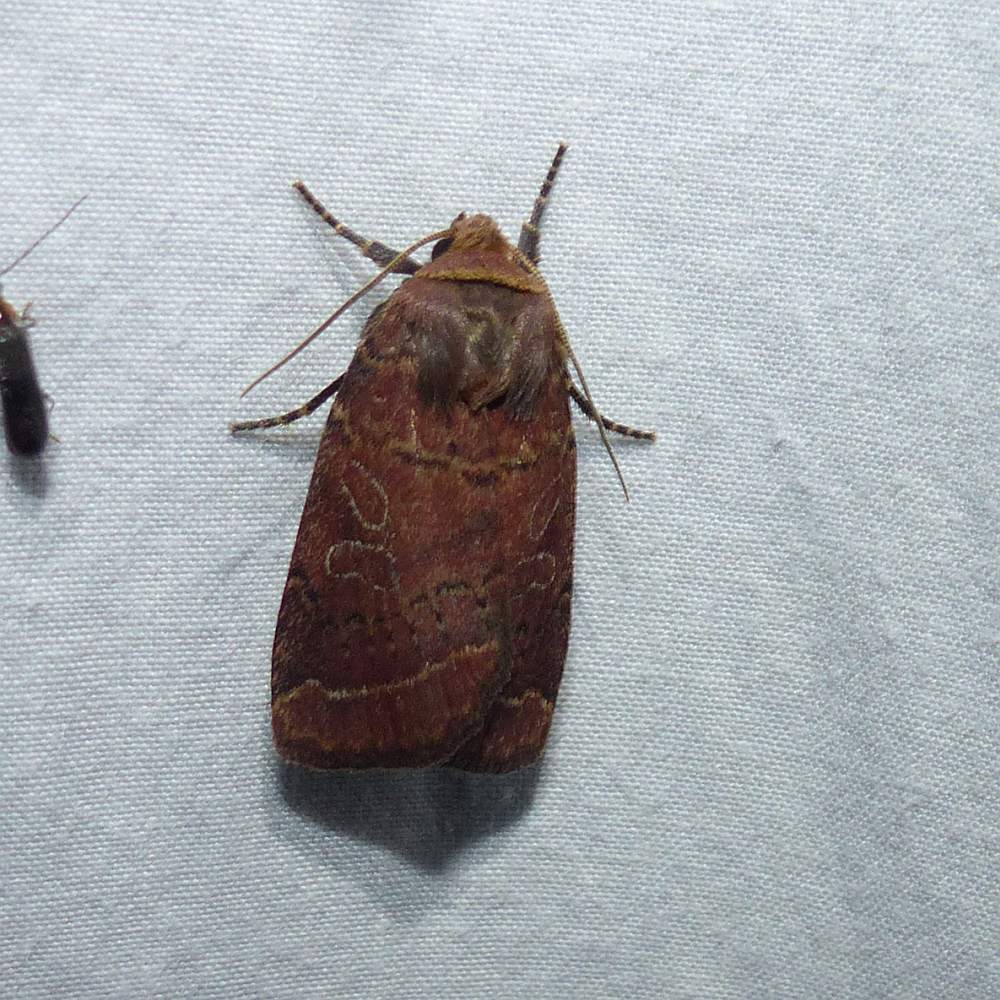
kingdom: Animalia
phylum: Arthropoda
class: Insecta
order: Lepidoptera
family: Noctuidae
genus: Trichopolia
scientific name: Trichopolia
